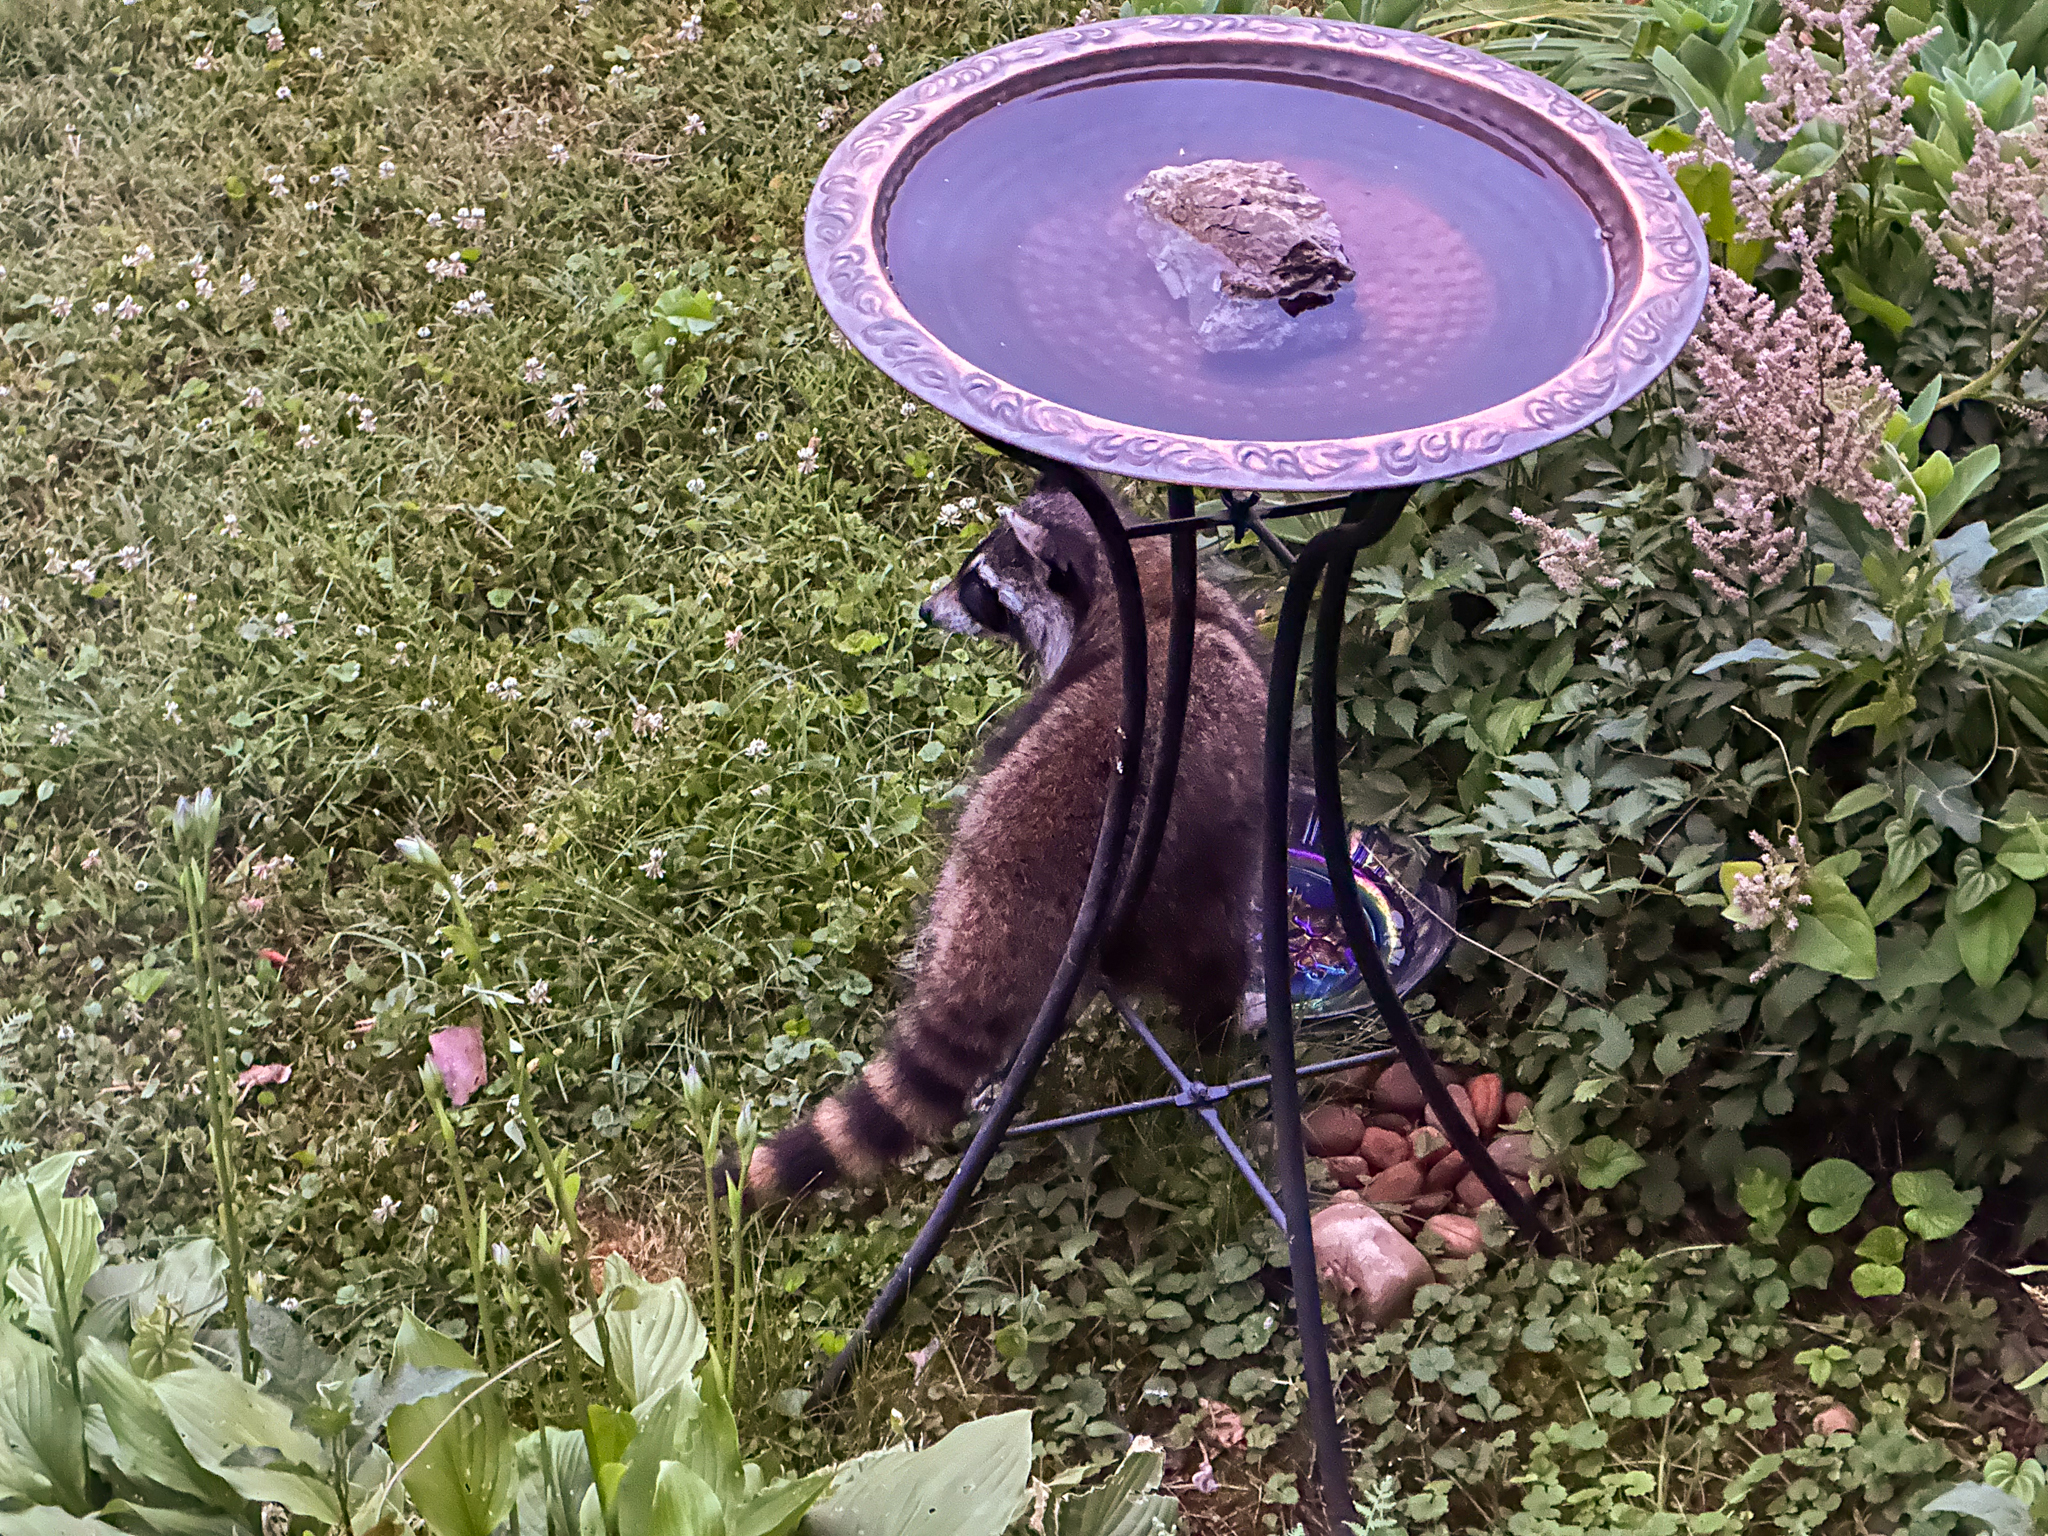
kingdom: Animalia
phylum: Chordata
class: Mammalia
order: Carnivora
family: Procyonidae
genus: Procyon
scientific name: Procyon lotor
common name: Raccoon
